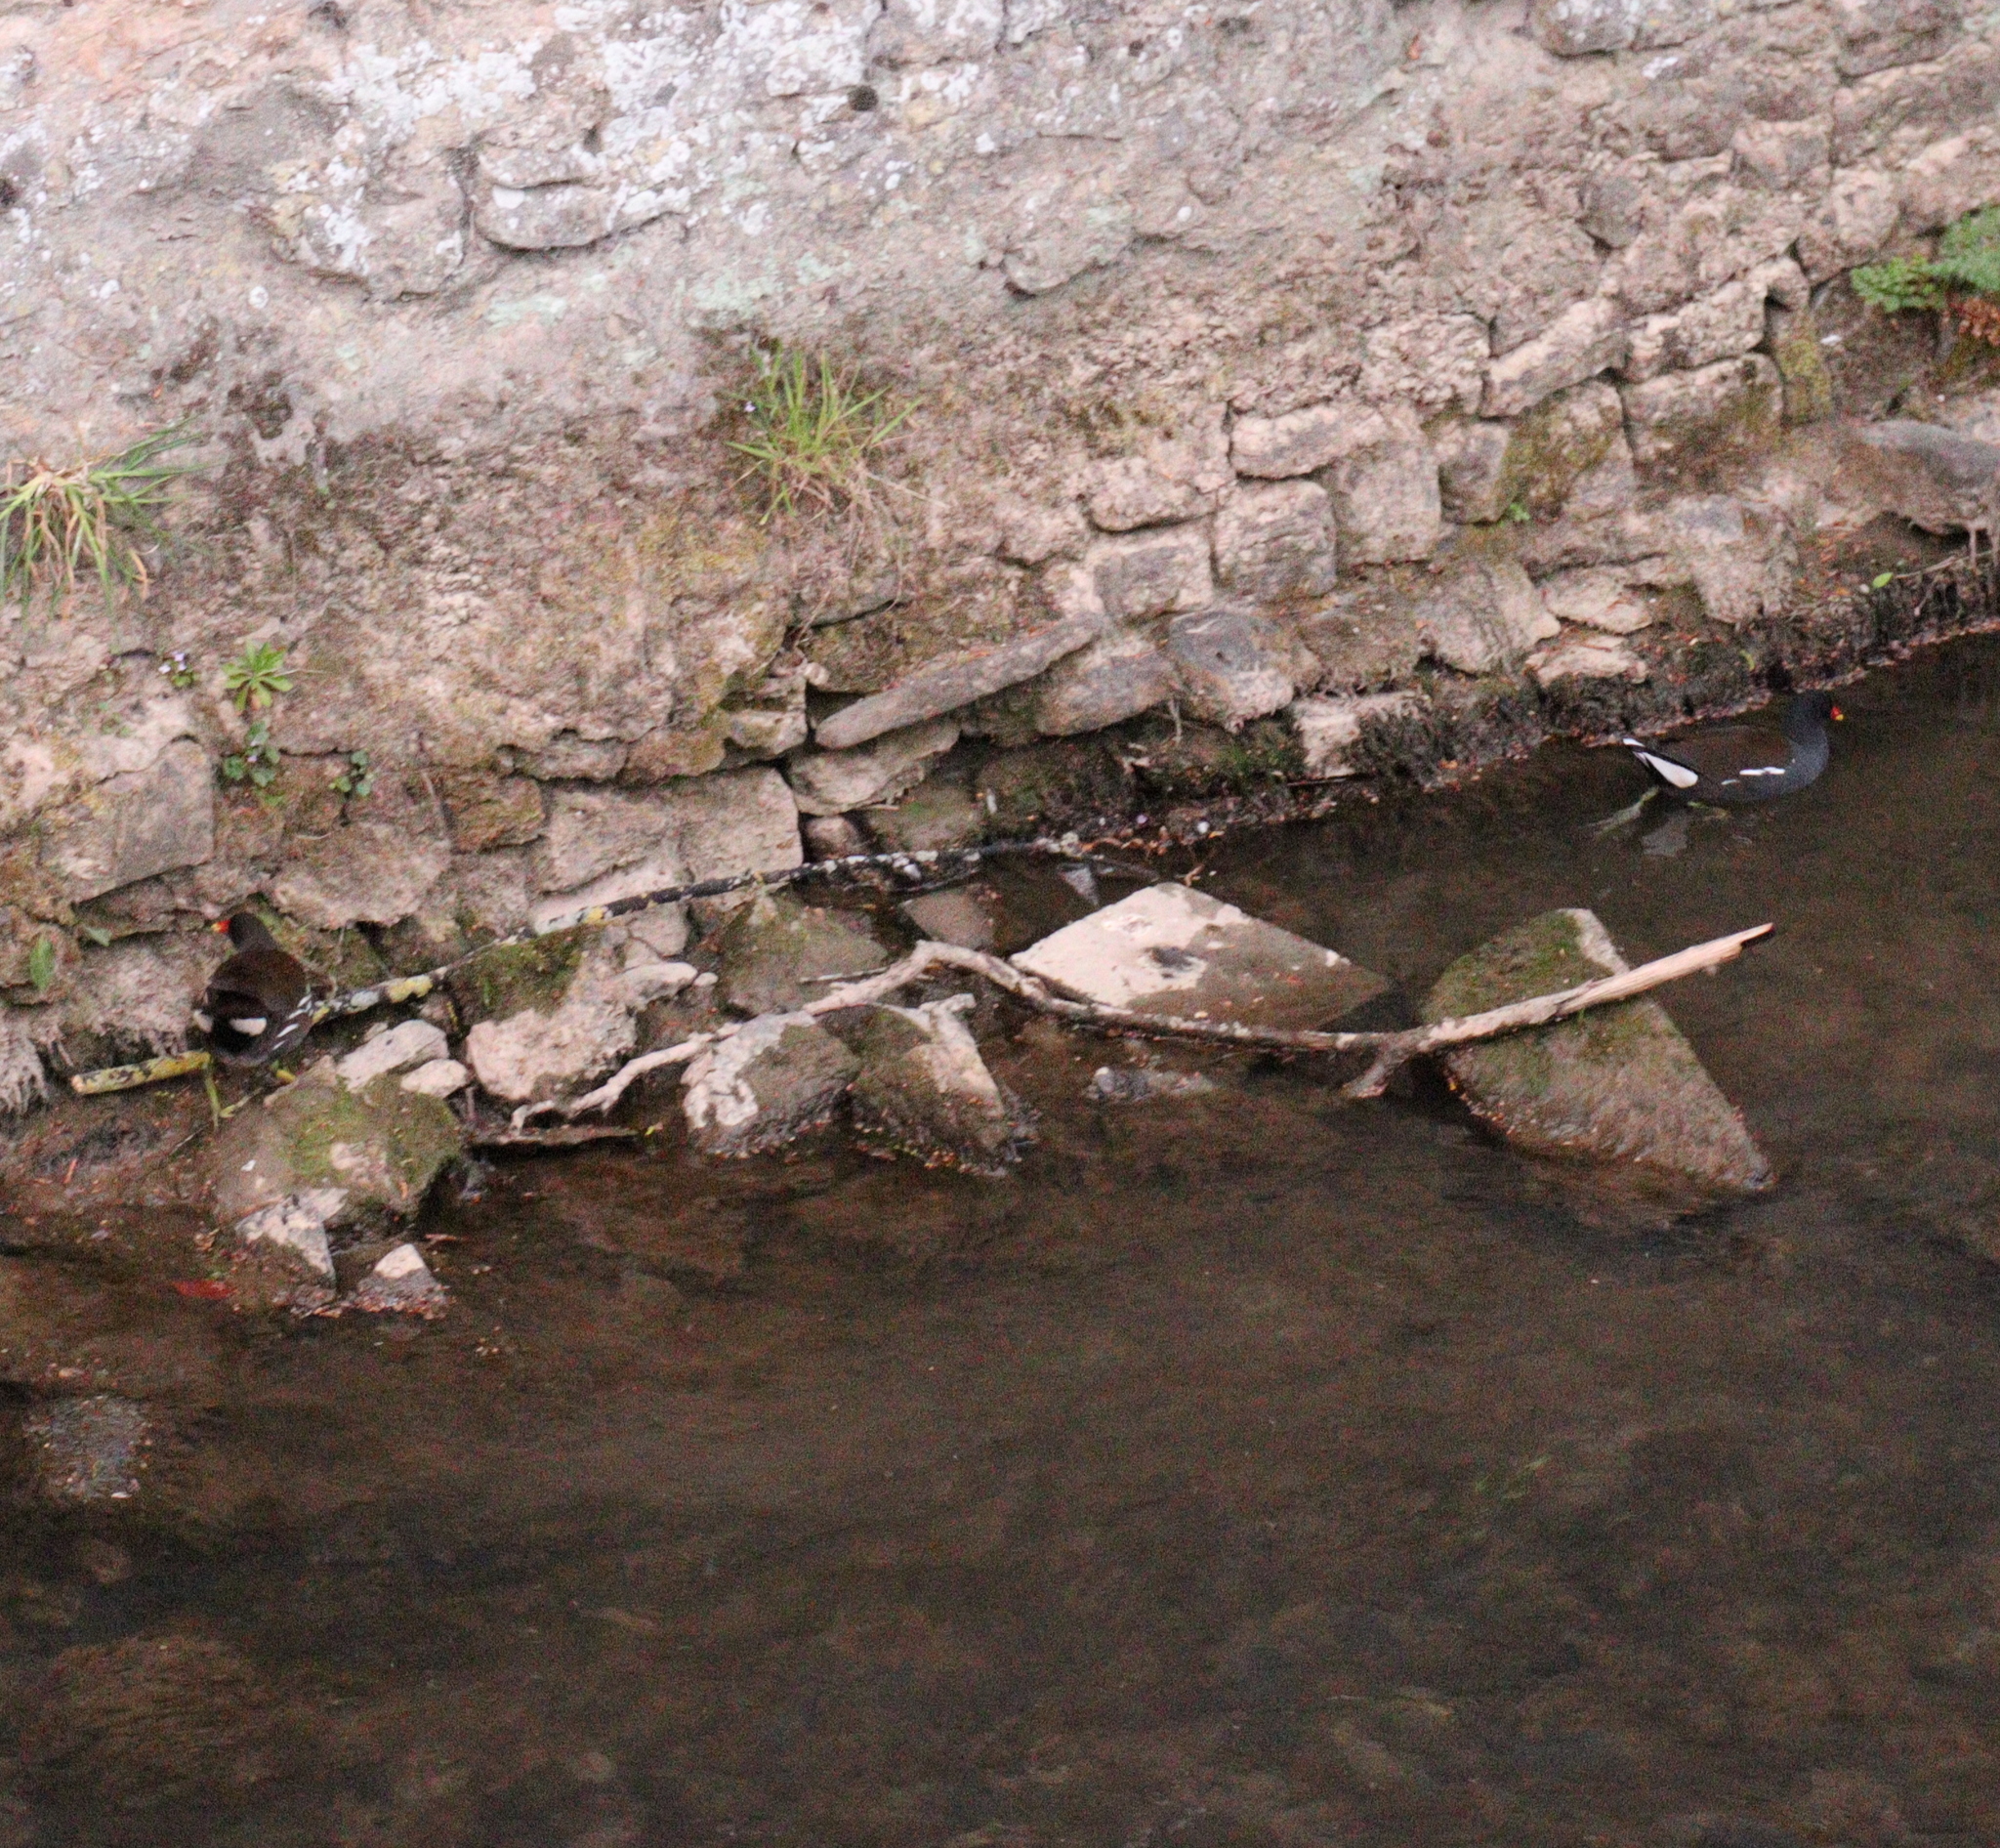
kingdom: Animalia
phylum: Chordata
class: Aves
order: Gruiformes
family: Rallidae
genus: Gallinula
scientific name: Gallinula chloropus
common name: Common moorhen
